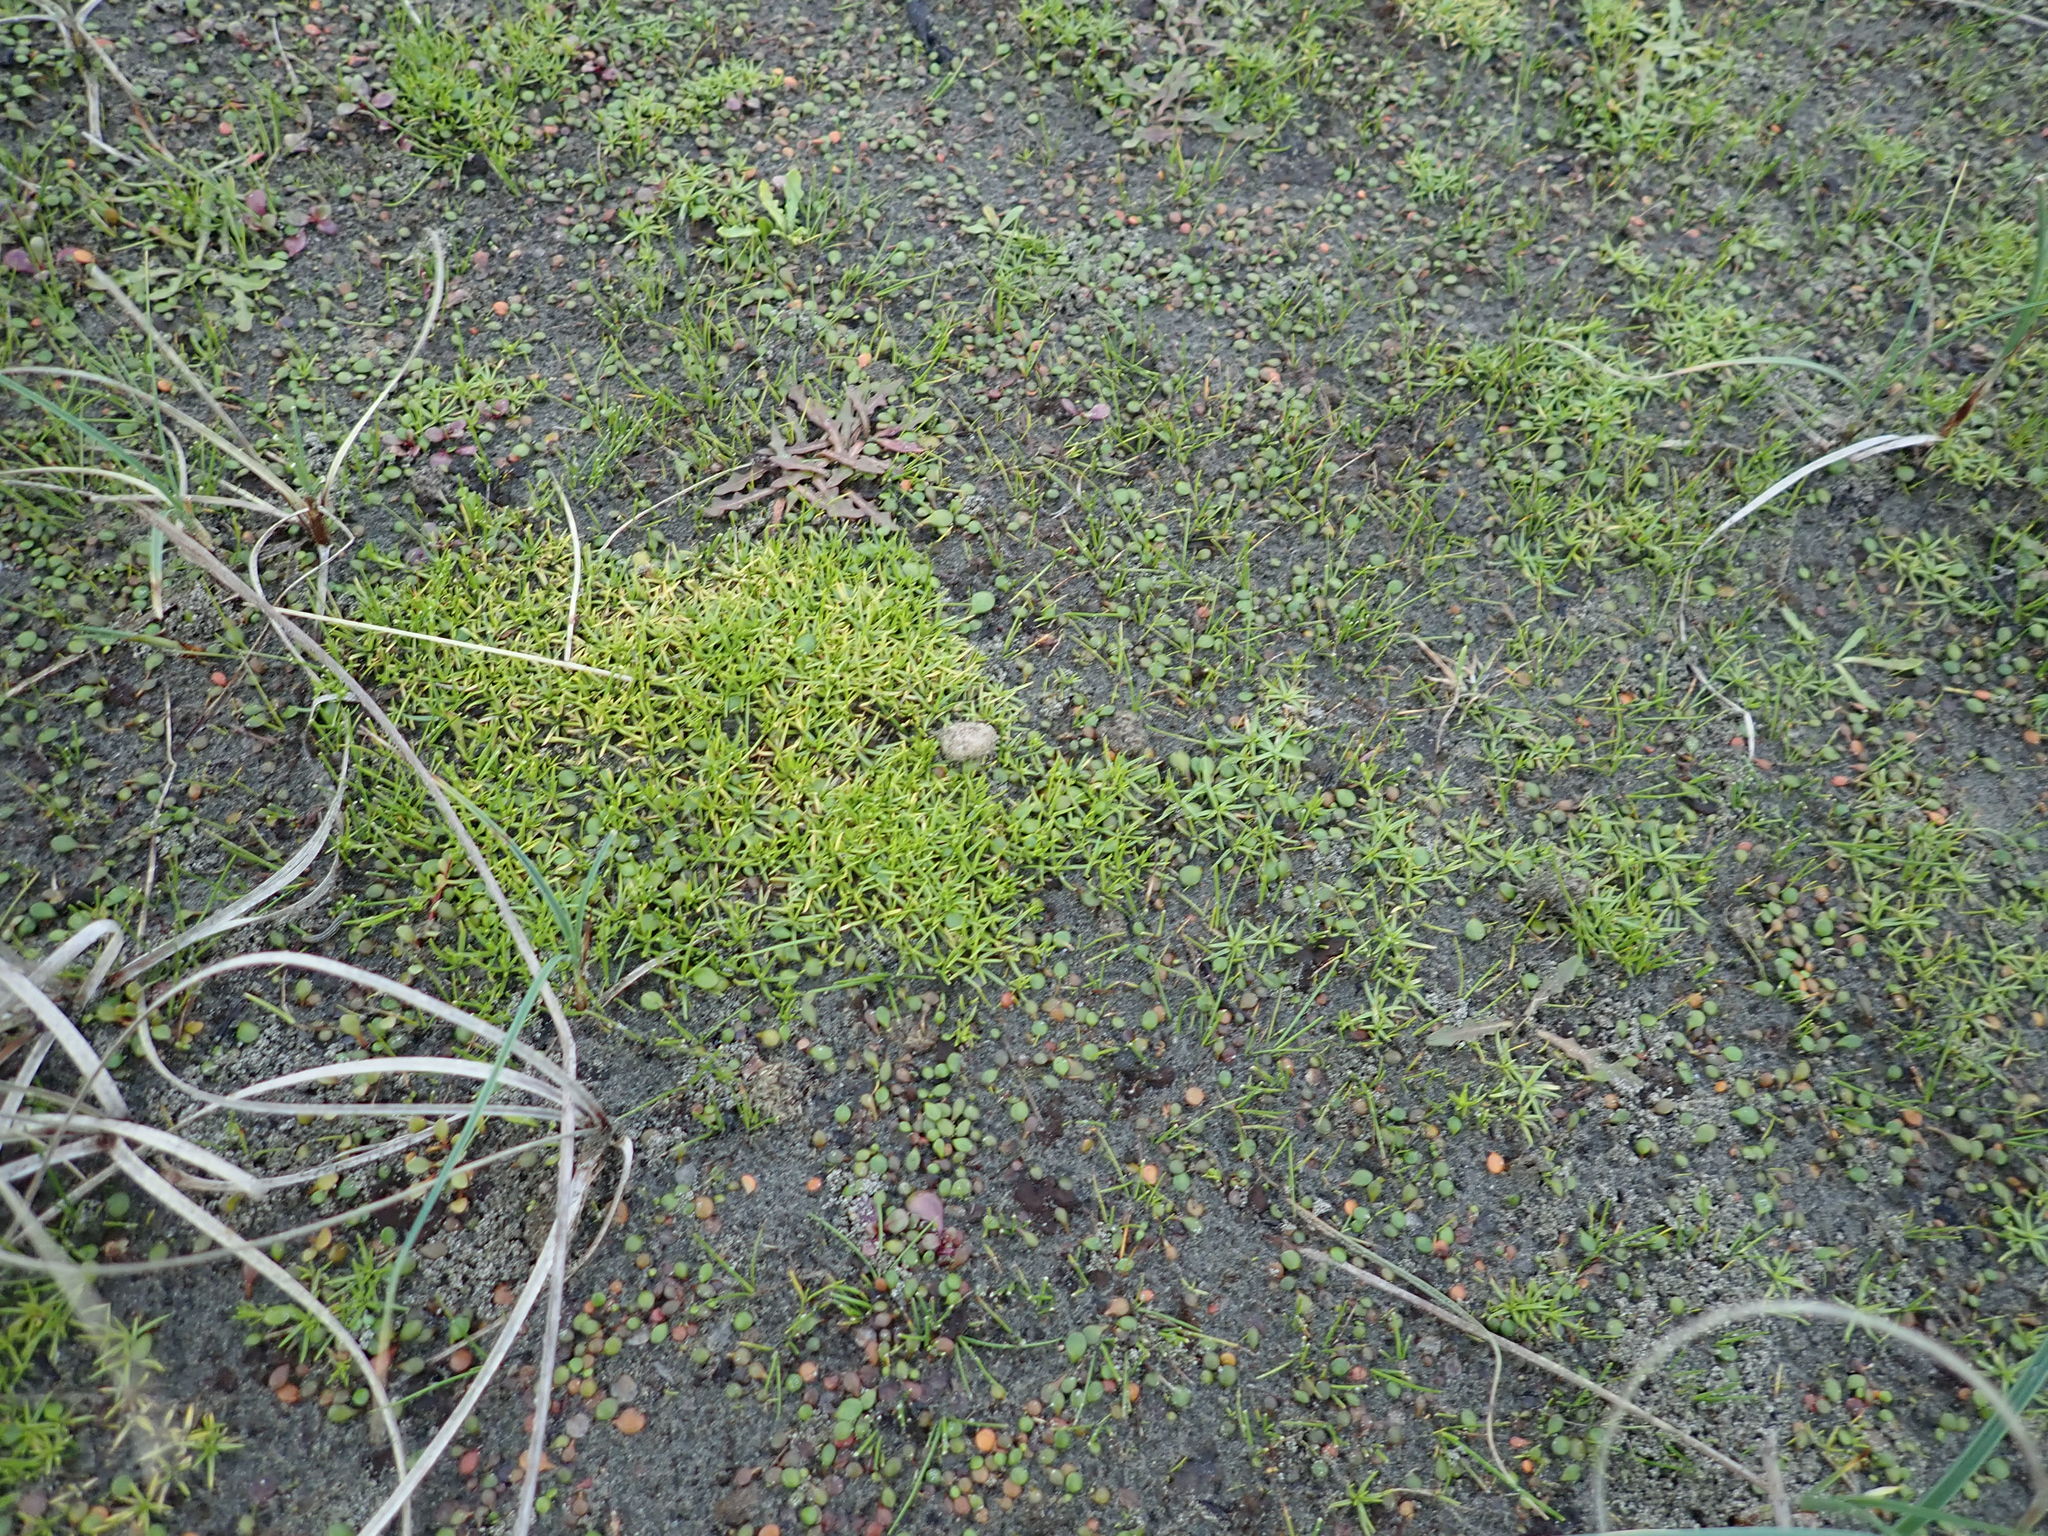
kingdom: Plantae
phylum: Tracheophyta
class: Magnoliopsida
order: Caryophyllales
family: Caryophyllaceae
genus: Sagina
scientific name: Sagina procumbens
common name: Procumbent pearlwort
